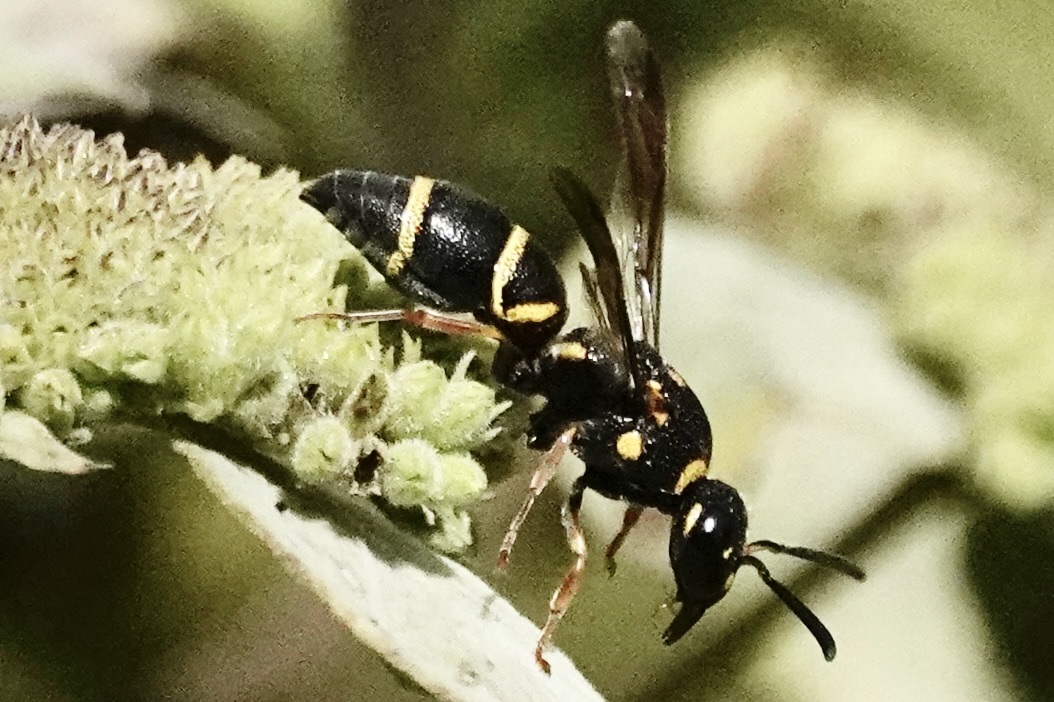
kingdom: Animalia
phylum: Arthropoda
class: Insecta
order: Hymenoptera
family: Eumenidae
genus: Parancistrocerus
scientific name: Parancistrocerus fulvipes
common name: Potter wasp
